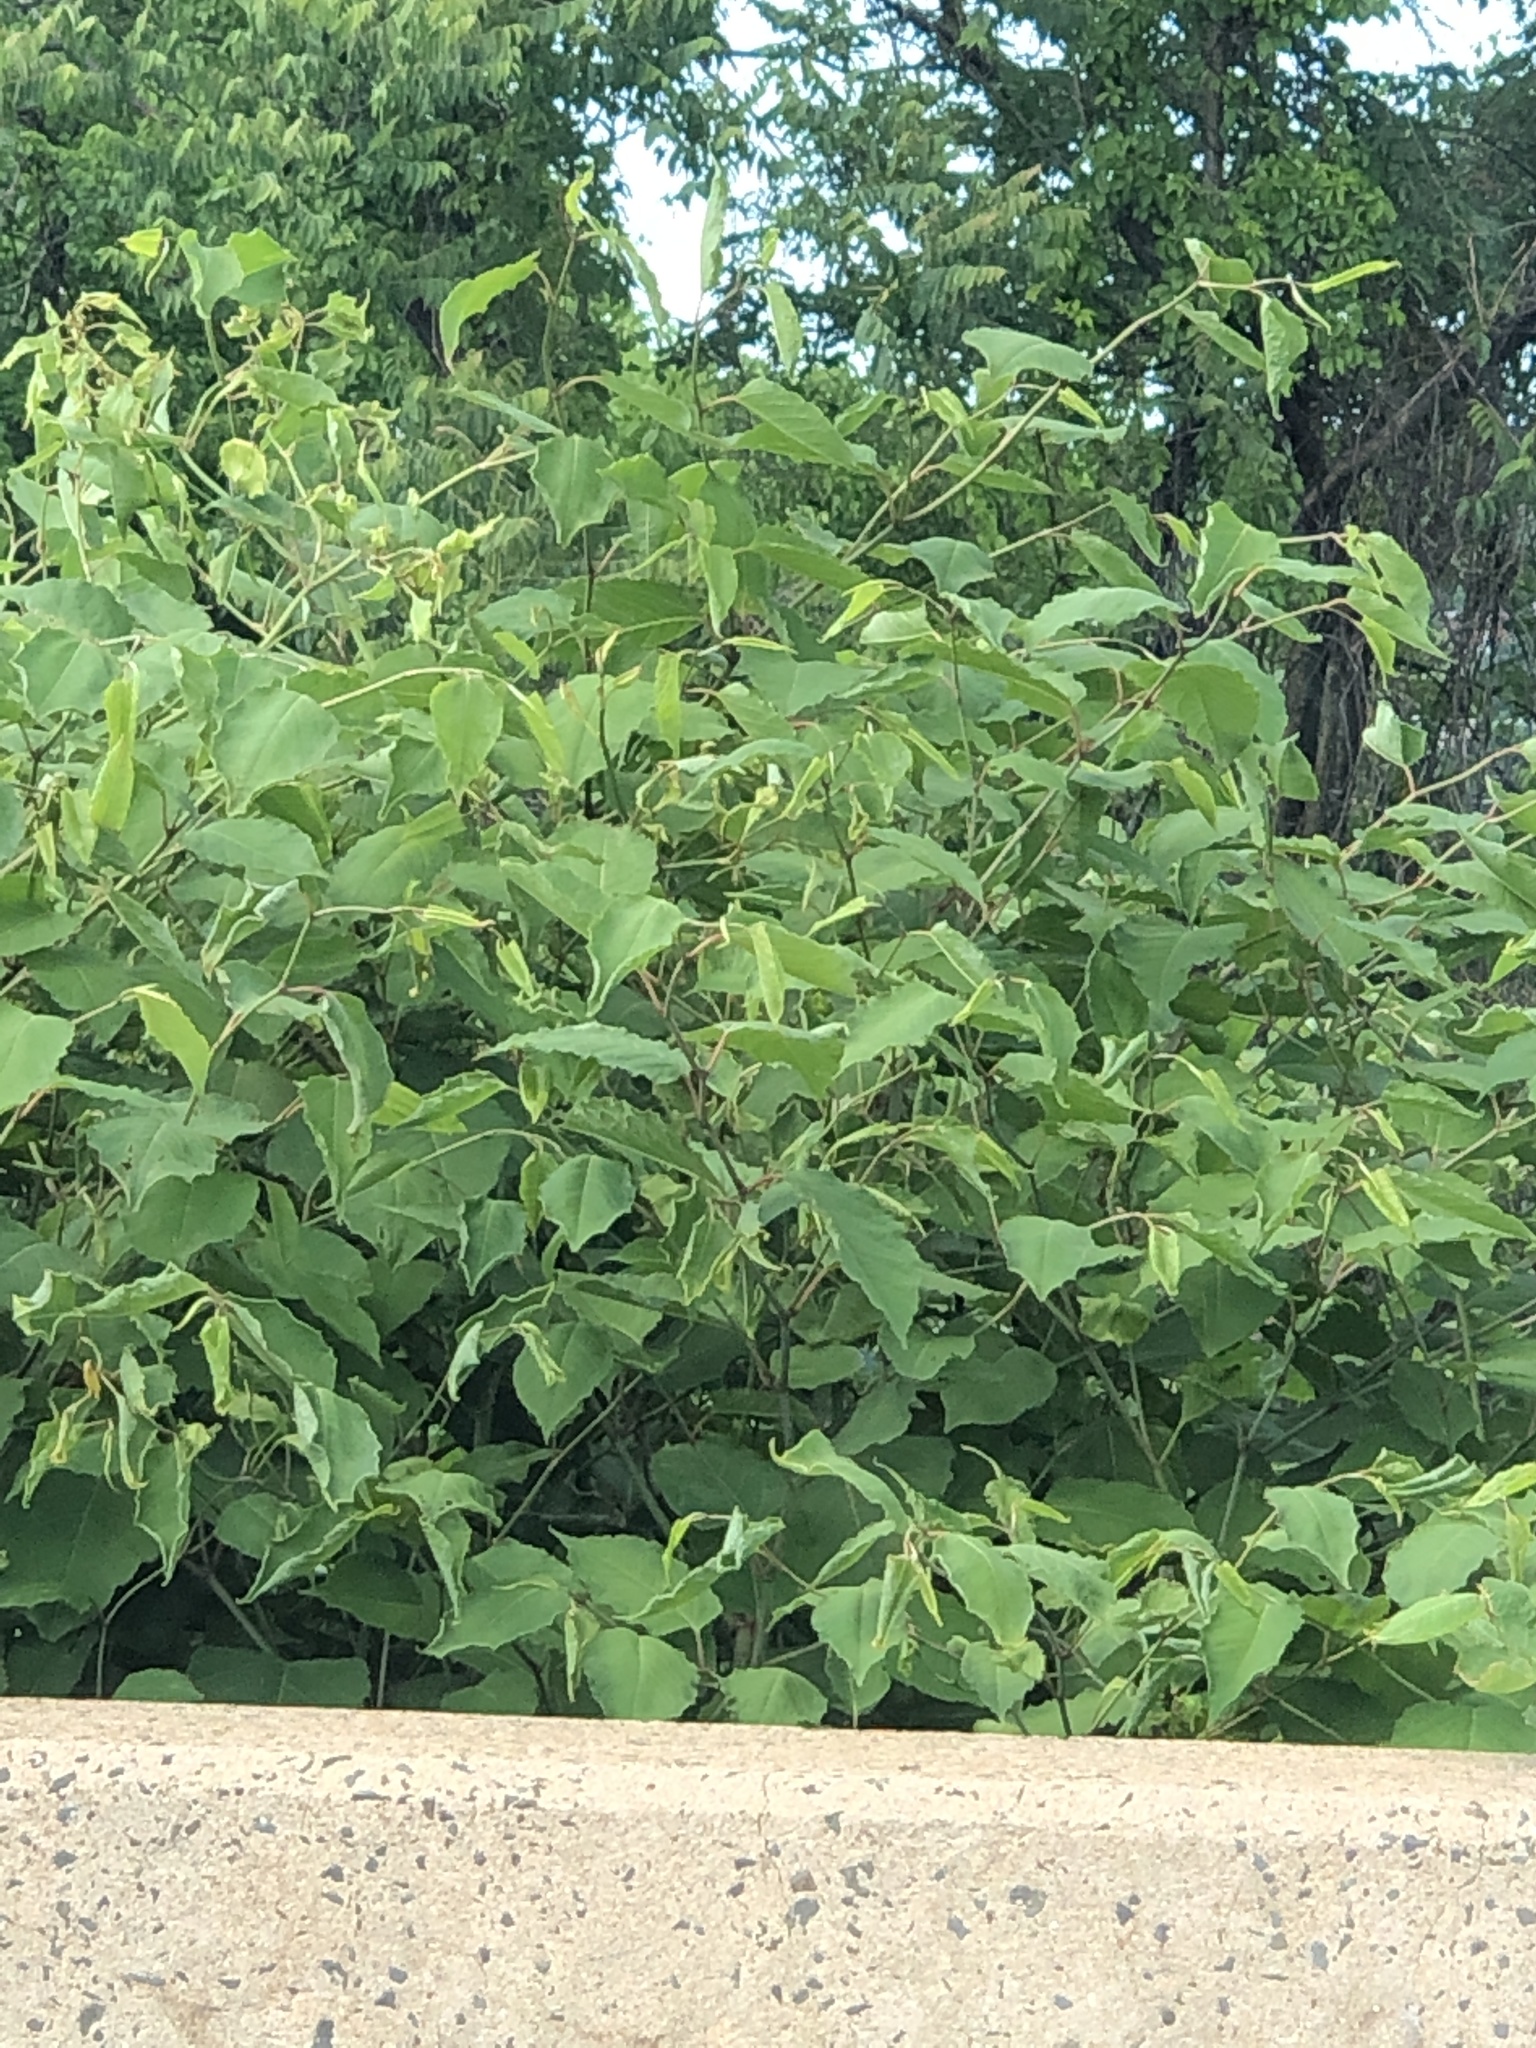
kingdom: Plantae
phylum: Tracheophyta
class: Magnoliopsida
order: Caryophyllales
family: Polygonaceae
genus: Reynoutria
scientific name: Reynoutria japonica
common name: Japanese knotweed
